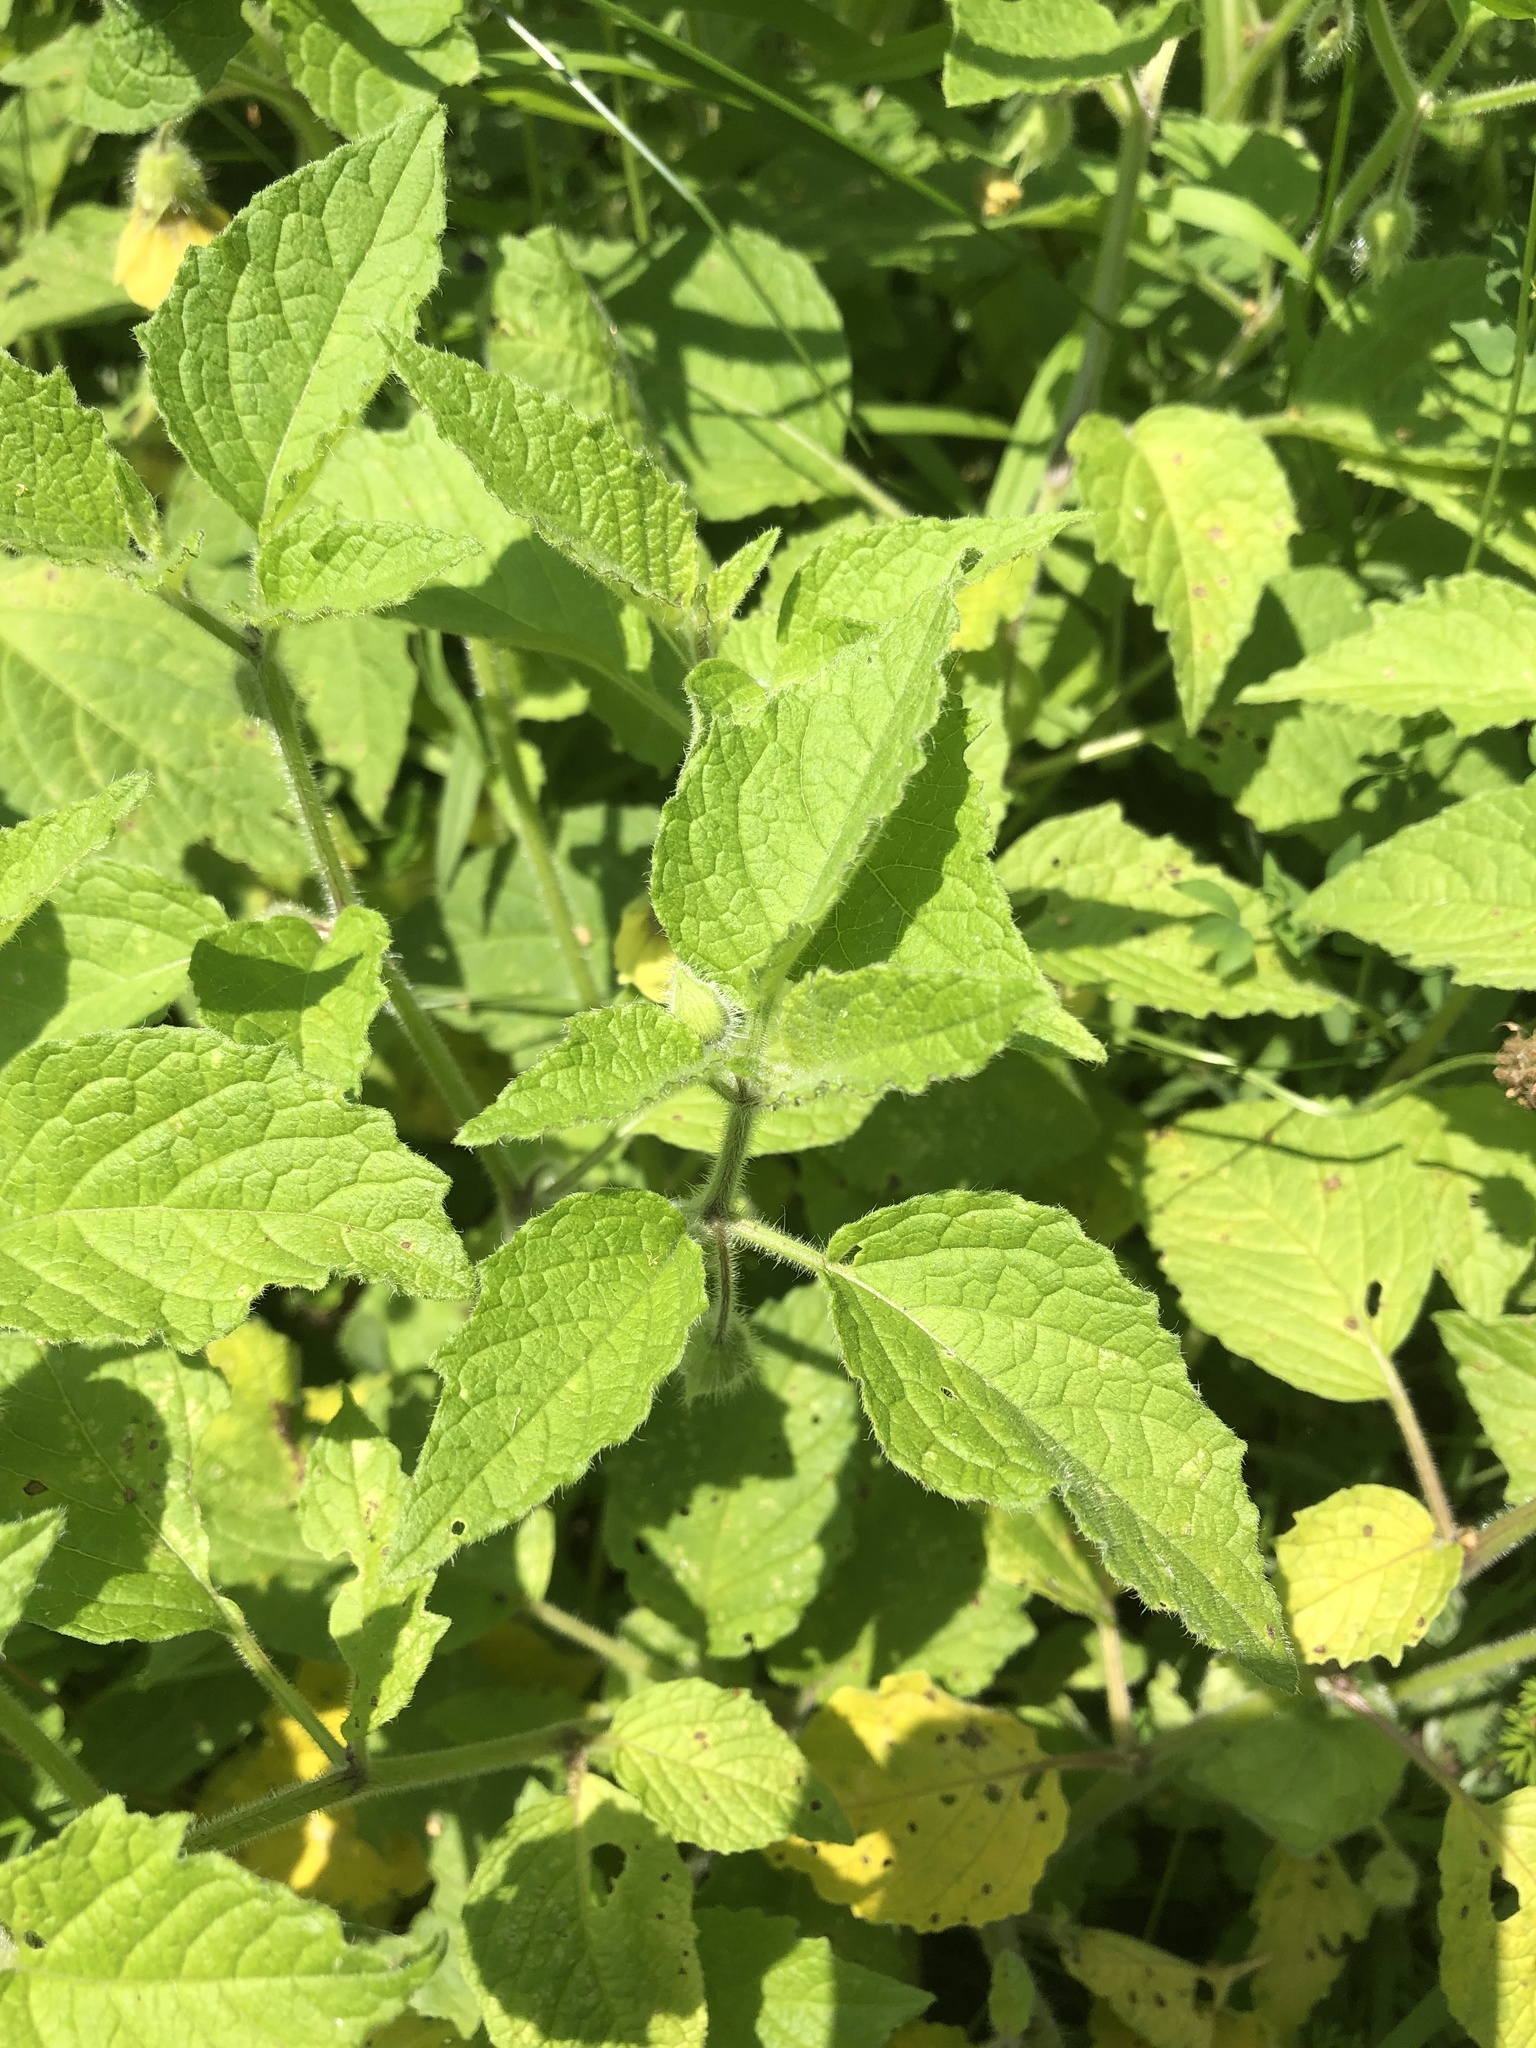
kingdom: Plantae
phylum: Tracheophyta
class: Magnoliopsida
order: Solanales
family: Solanaceae
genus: Physalis
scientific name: Physalis heterophylla
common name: Clammy ground-cherry
